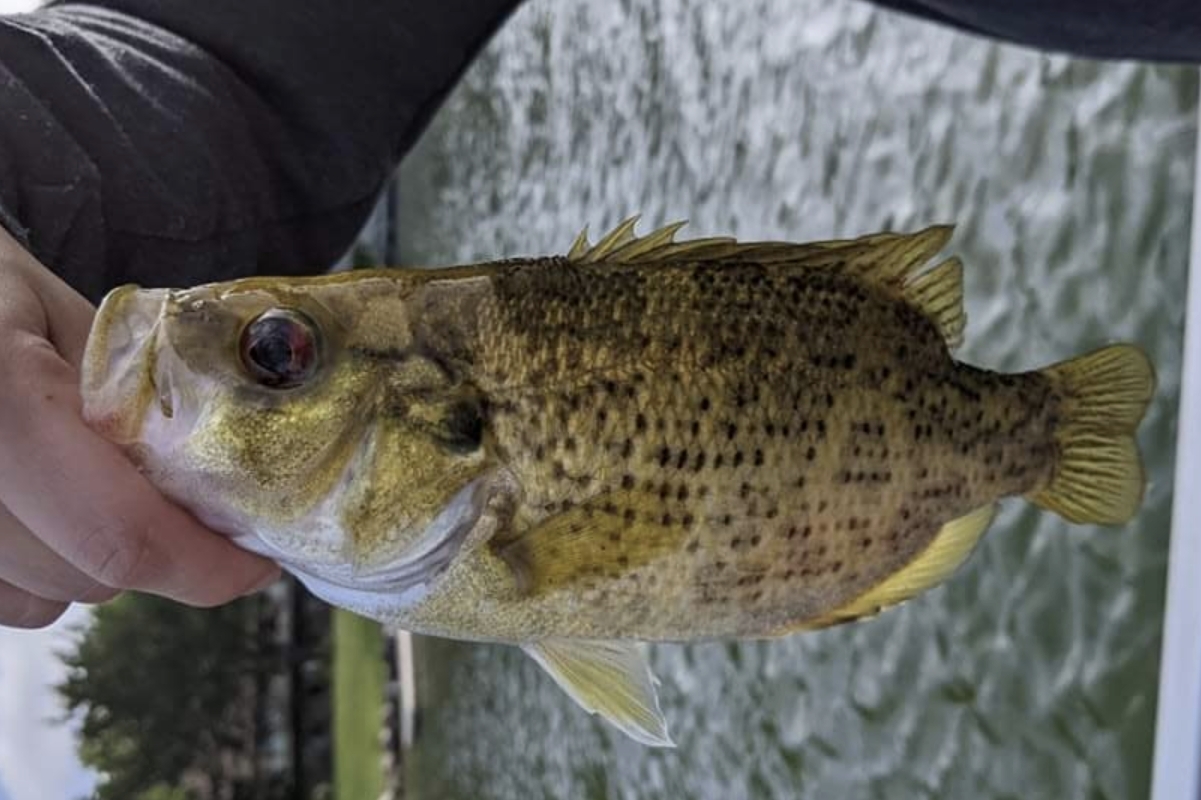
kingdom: Animalia
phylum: Chordata
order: Perciformes
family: Centrarchidae
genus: Ambloplites
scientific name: Ambloplites rupestris
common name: Rock bass
